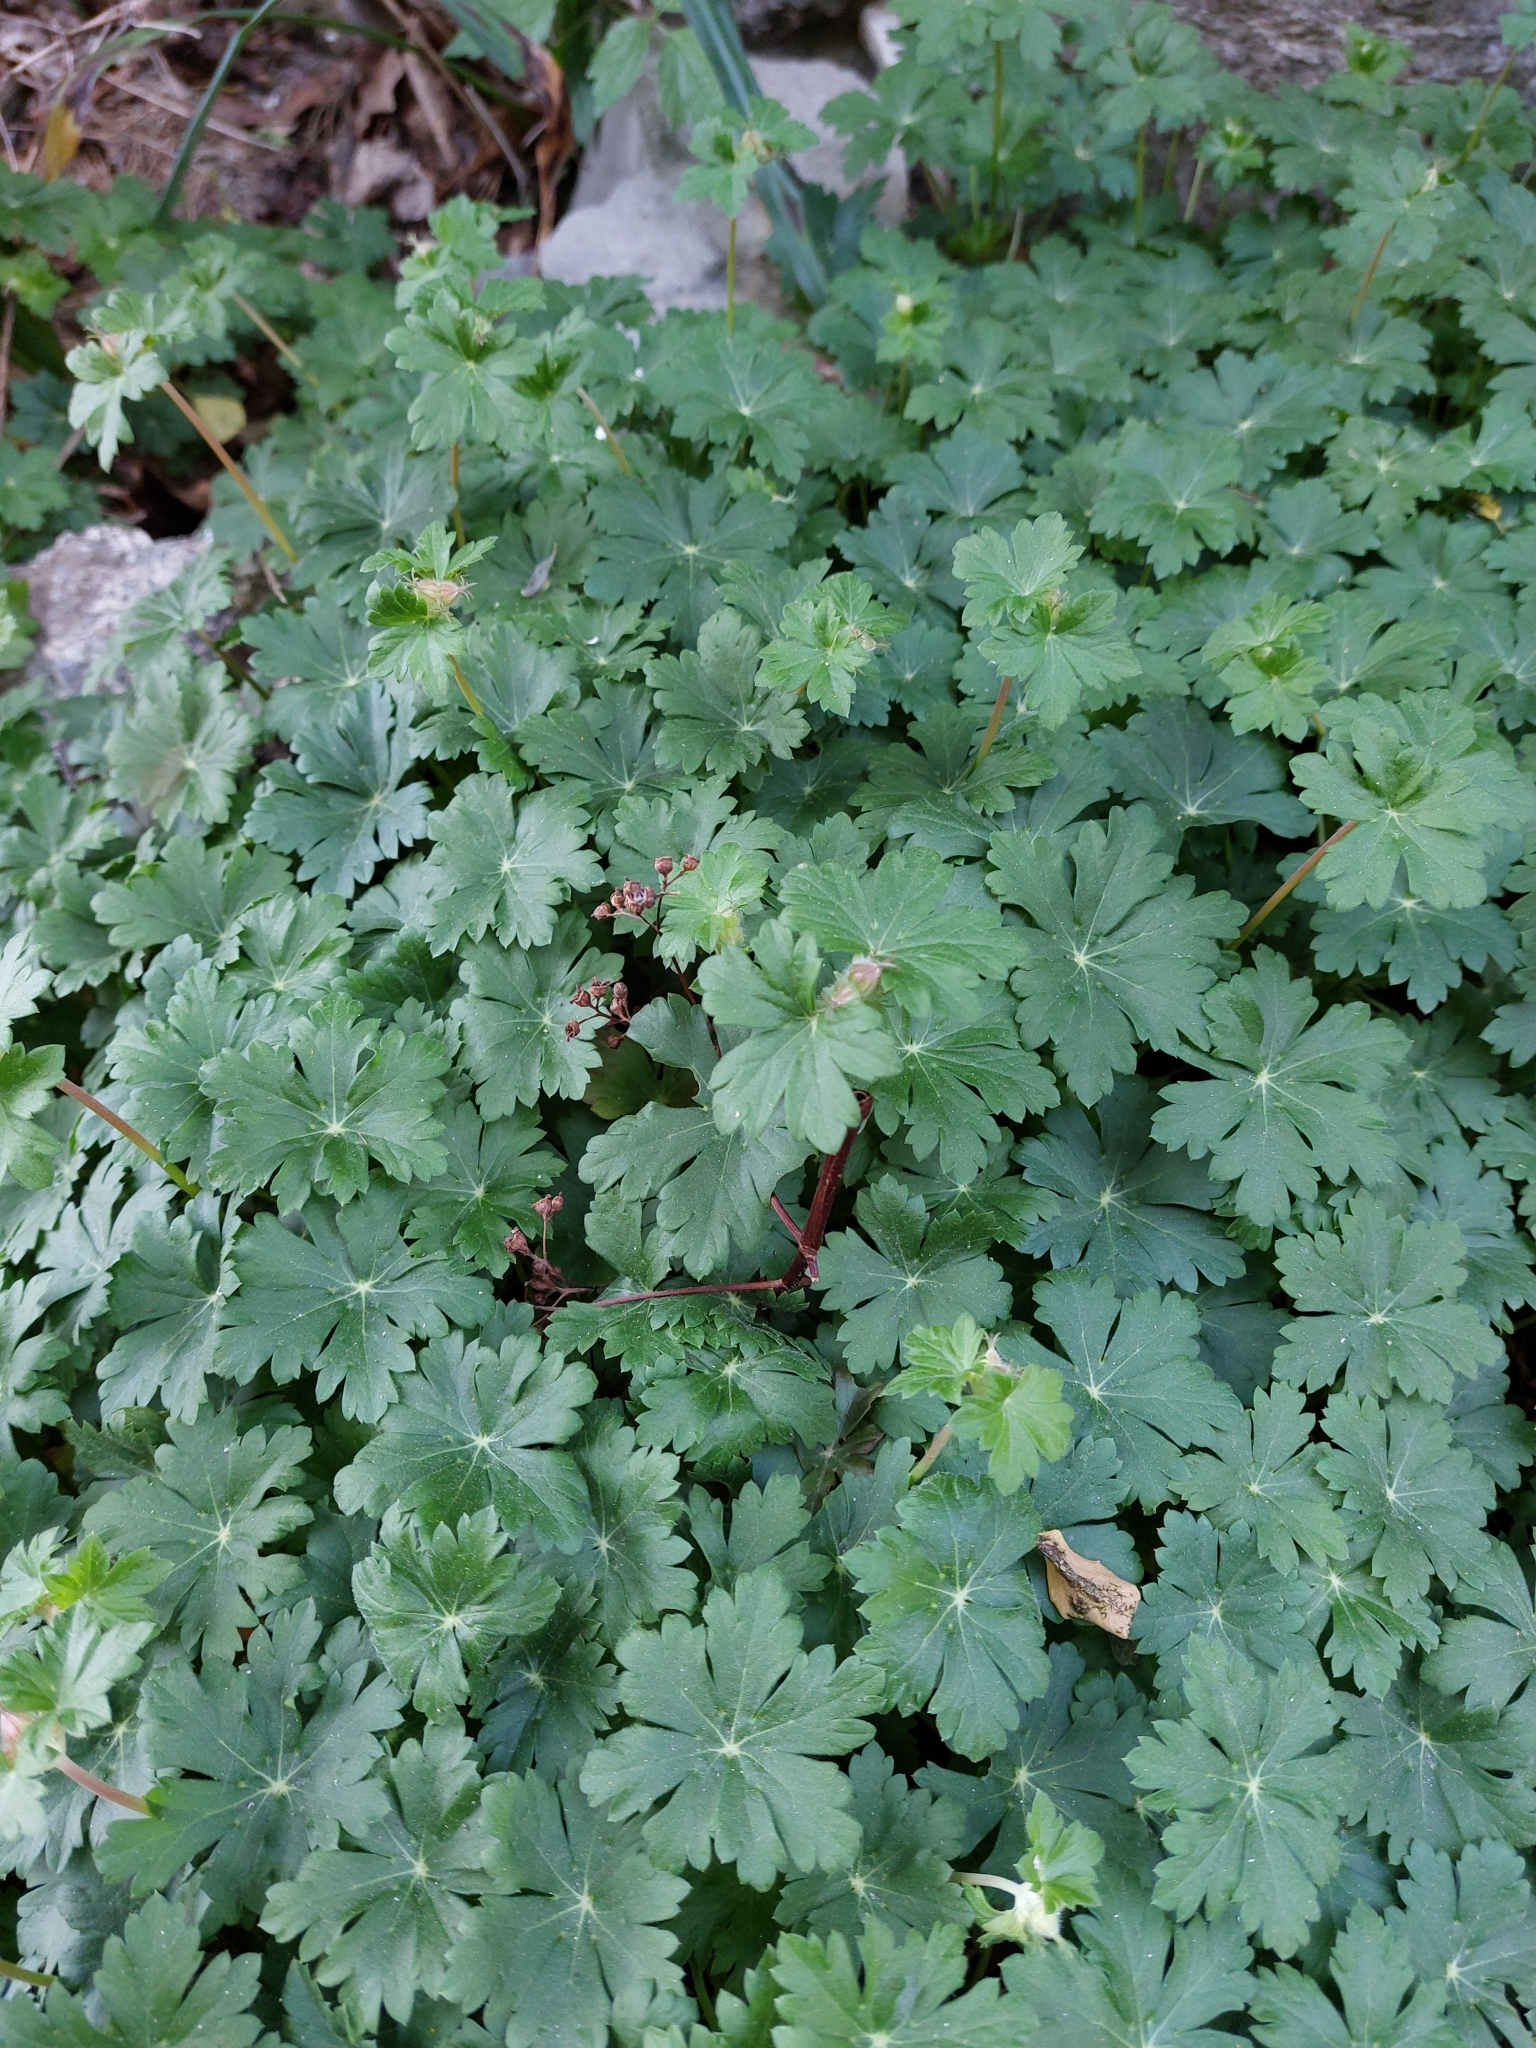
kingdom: Plantae
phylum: Tracheophyta
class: Magnoliopsida
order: Geraniales
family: Geraniaceae
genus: Geranium
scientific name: Geranium macrorrhizum
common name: Rock crane's-bill
